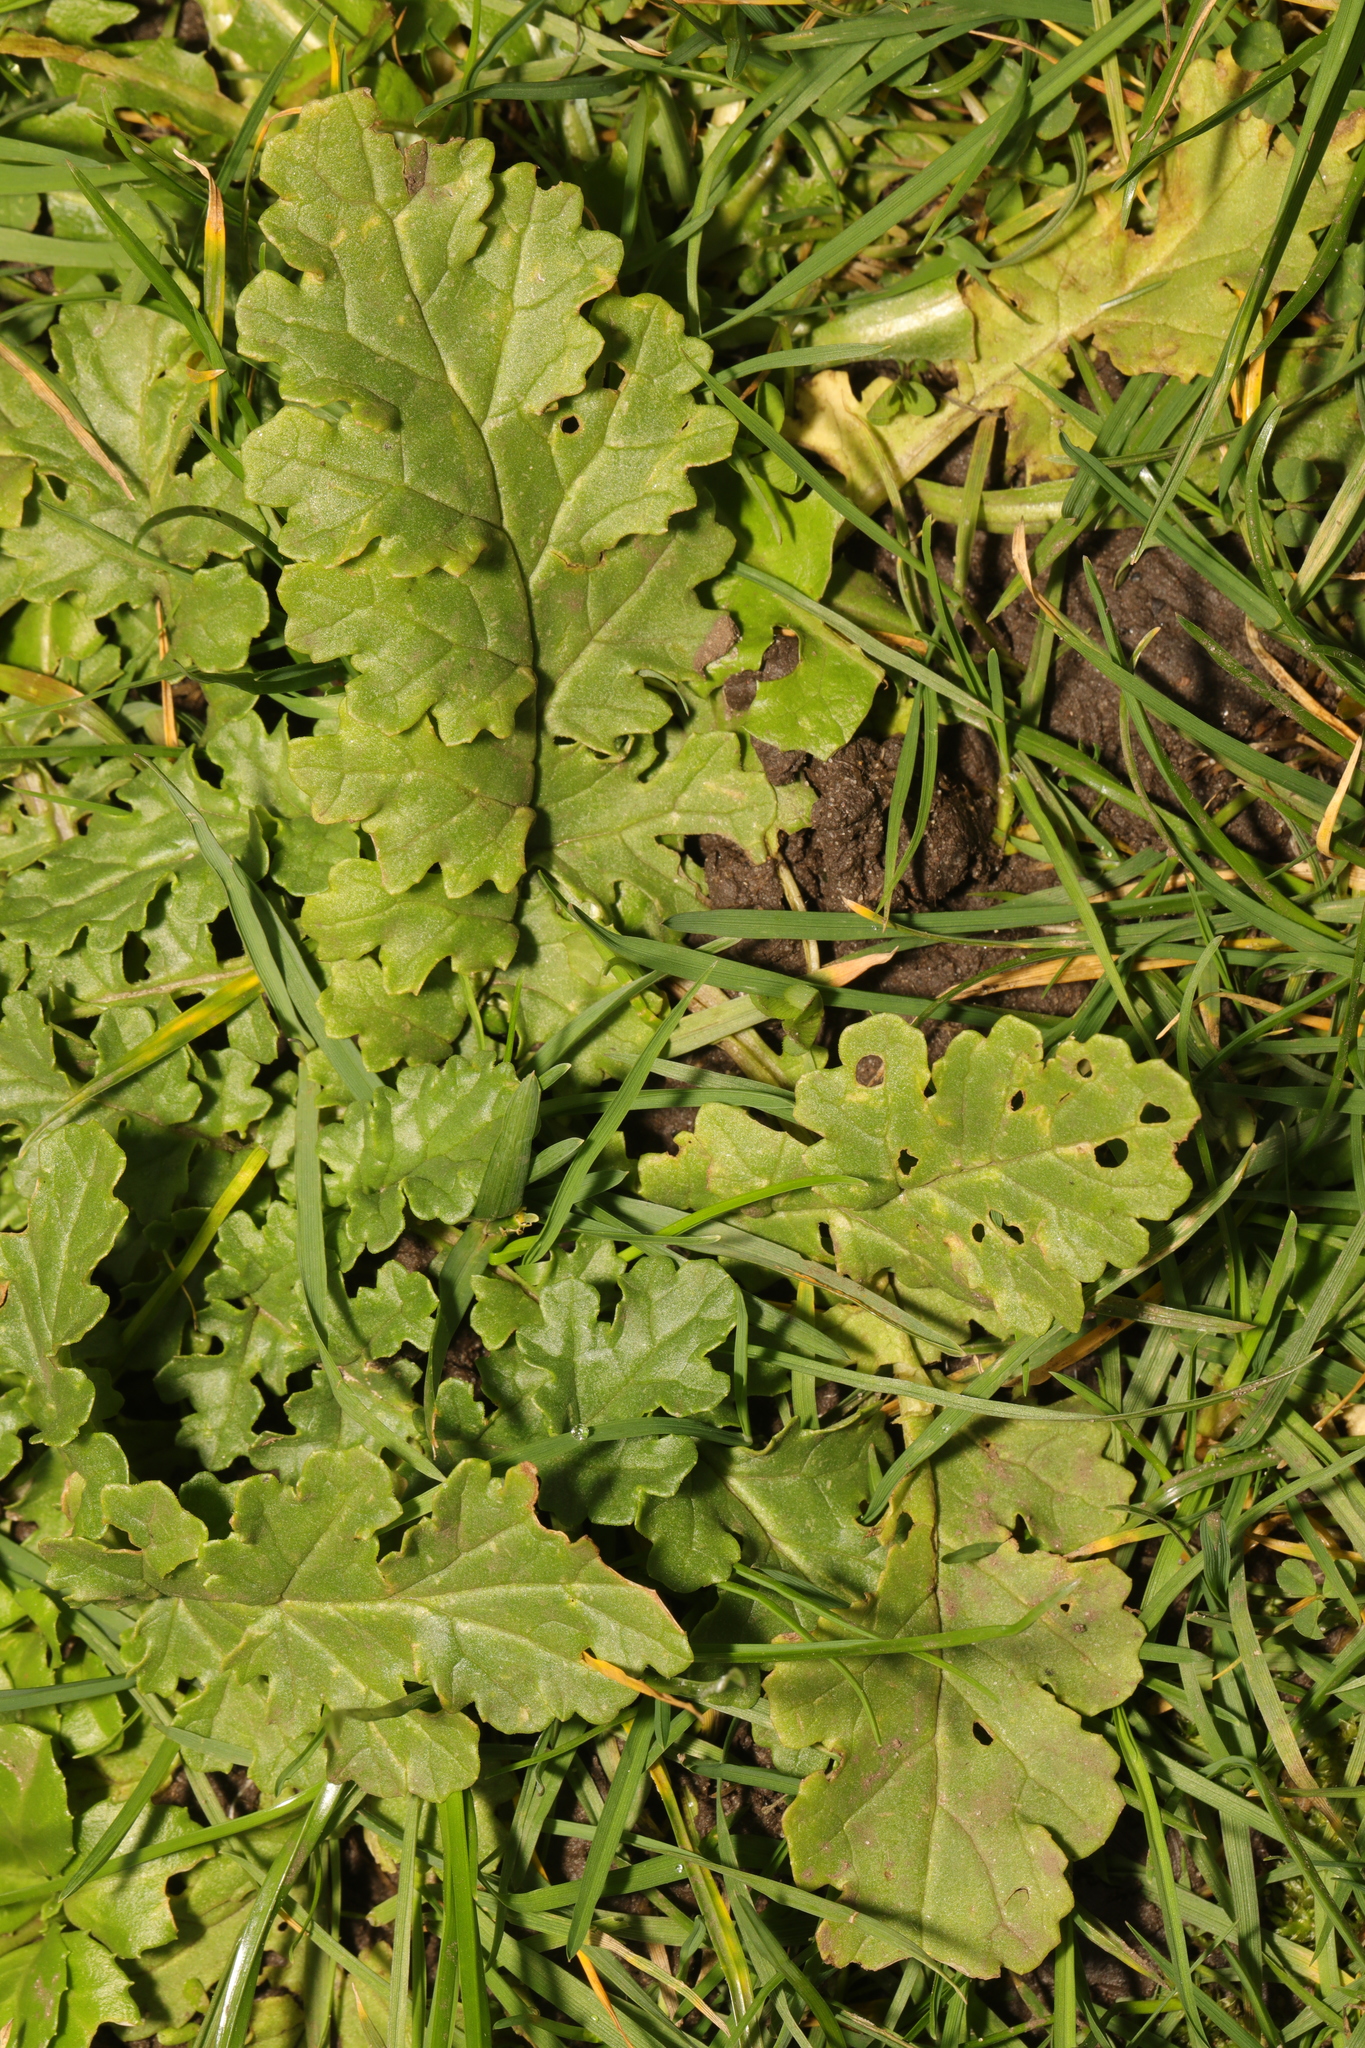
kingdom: Plantae
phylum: Tracheophyta
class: Magnoliopsida
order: Asterales
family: Asteraceae
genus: Jacobaea
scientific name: Jacobaea vulgaris
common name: Stinking willie
